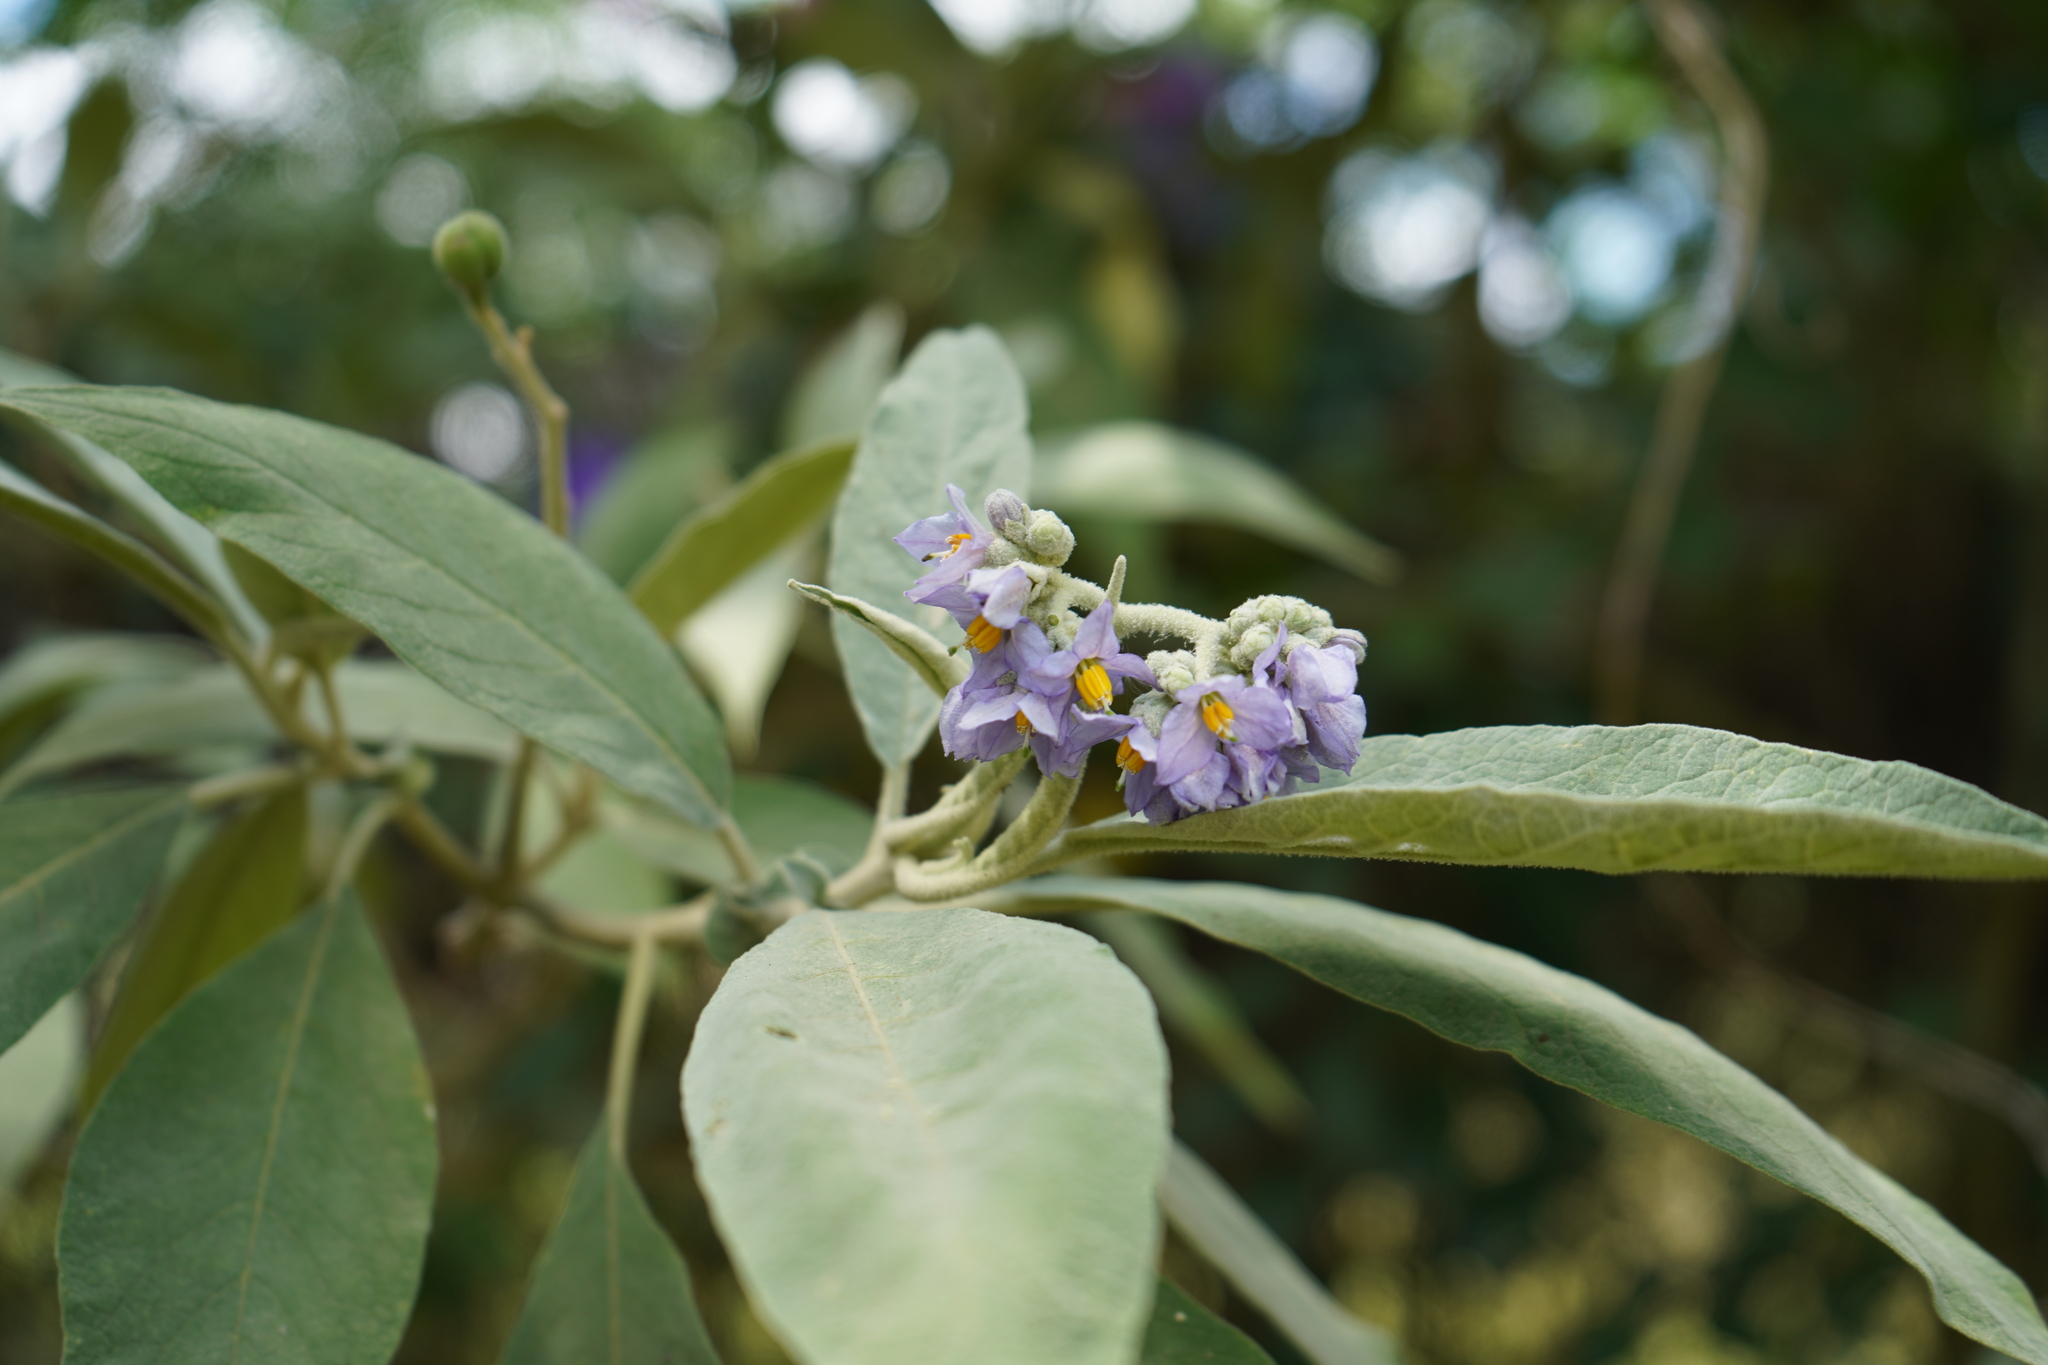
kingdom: Plantae
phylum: Tracheophyta
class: Magnoliopsida
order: Solanales
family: Solanaceae
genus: Solanum
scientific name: Solanum granulosoleprosum
